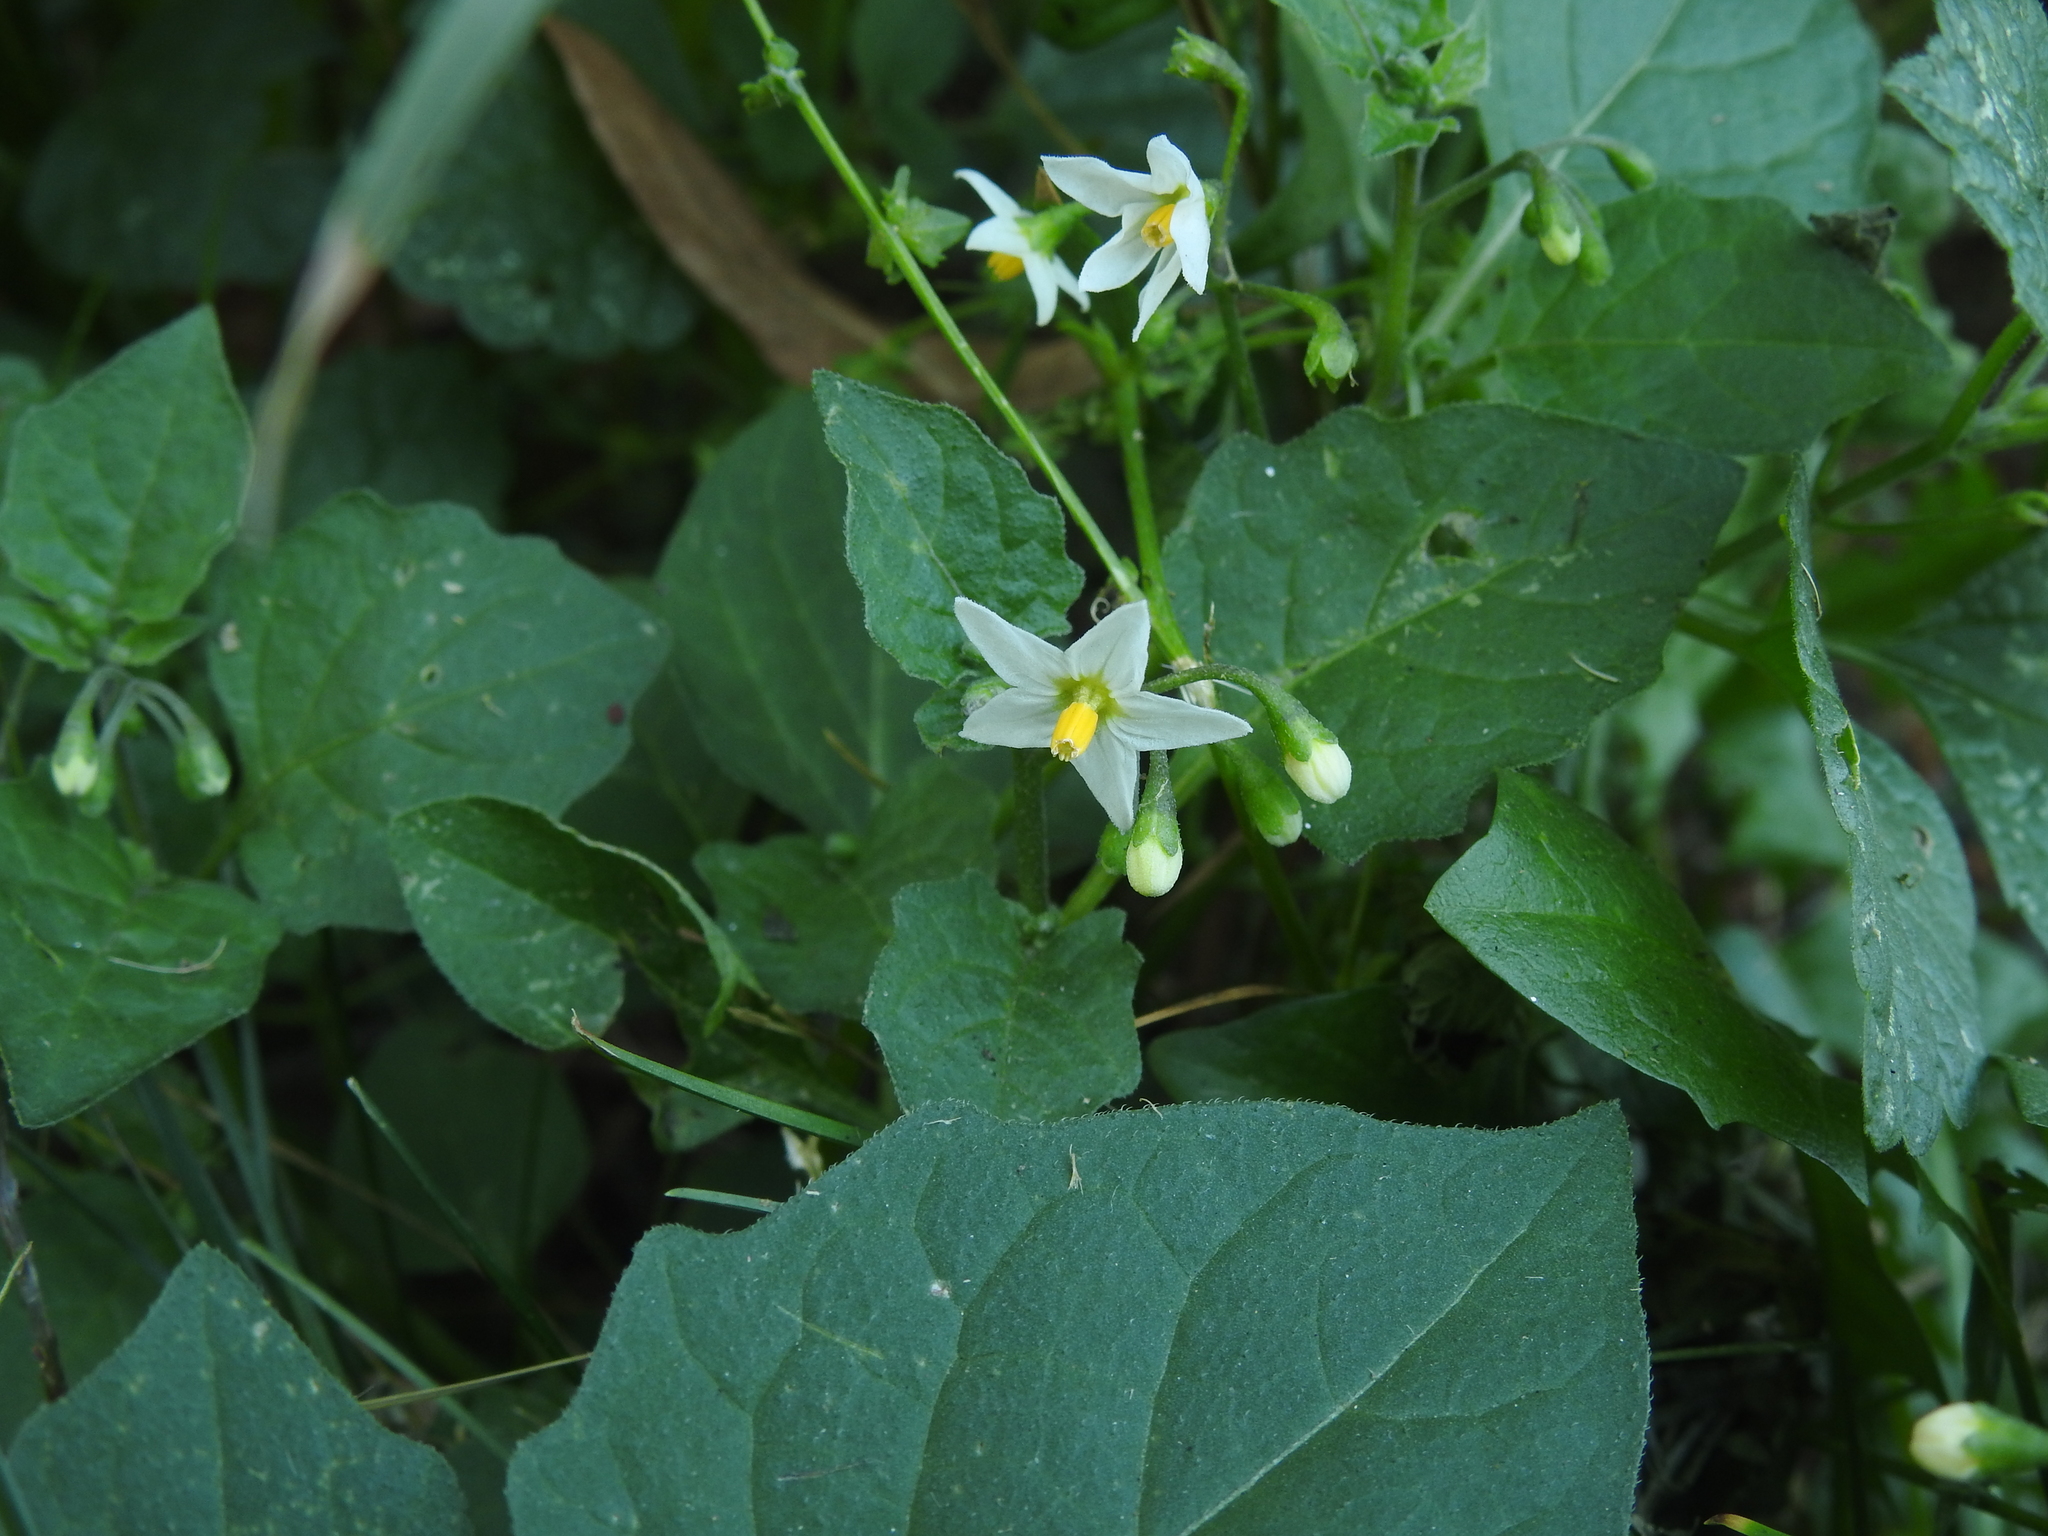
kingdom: Plantae
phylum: Tracheophyta
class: Magnoliopsida
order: Solanales
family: Solanaceae
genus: Solanum
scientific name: Solanum nigrum
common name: Black nightshade
